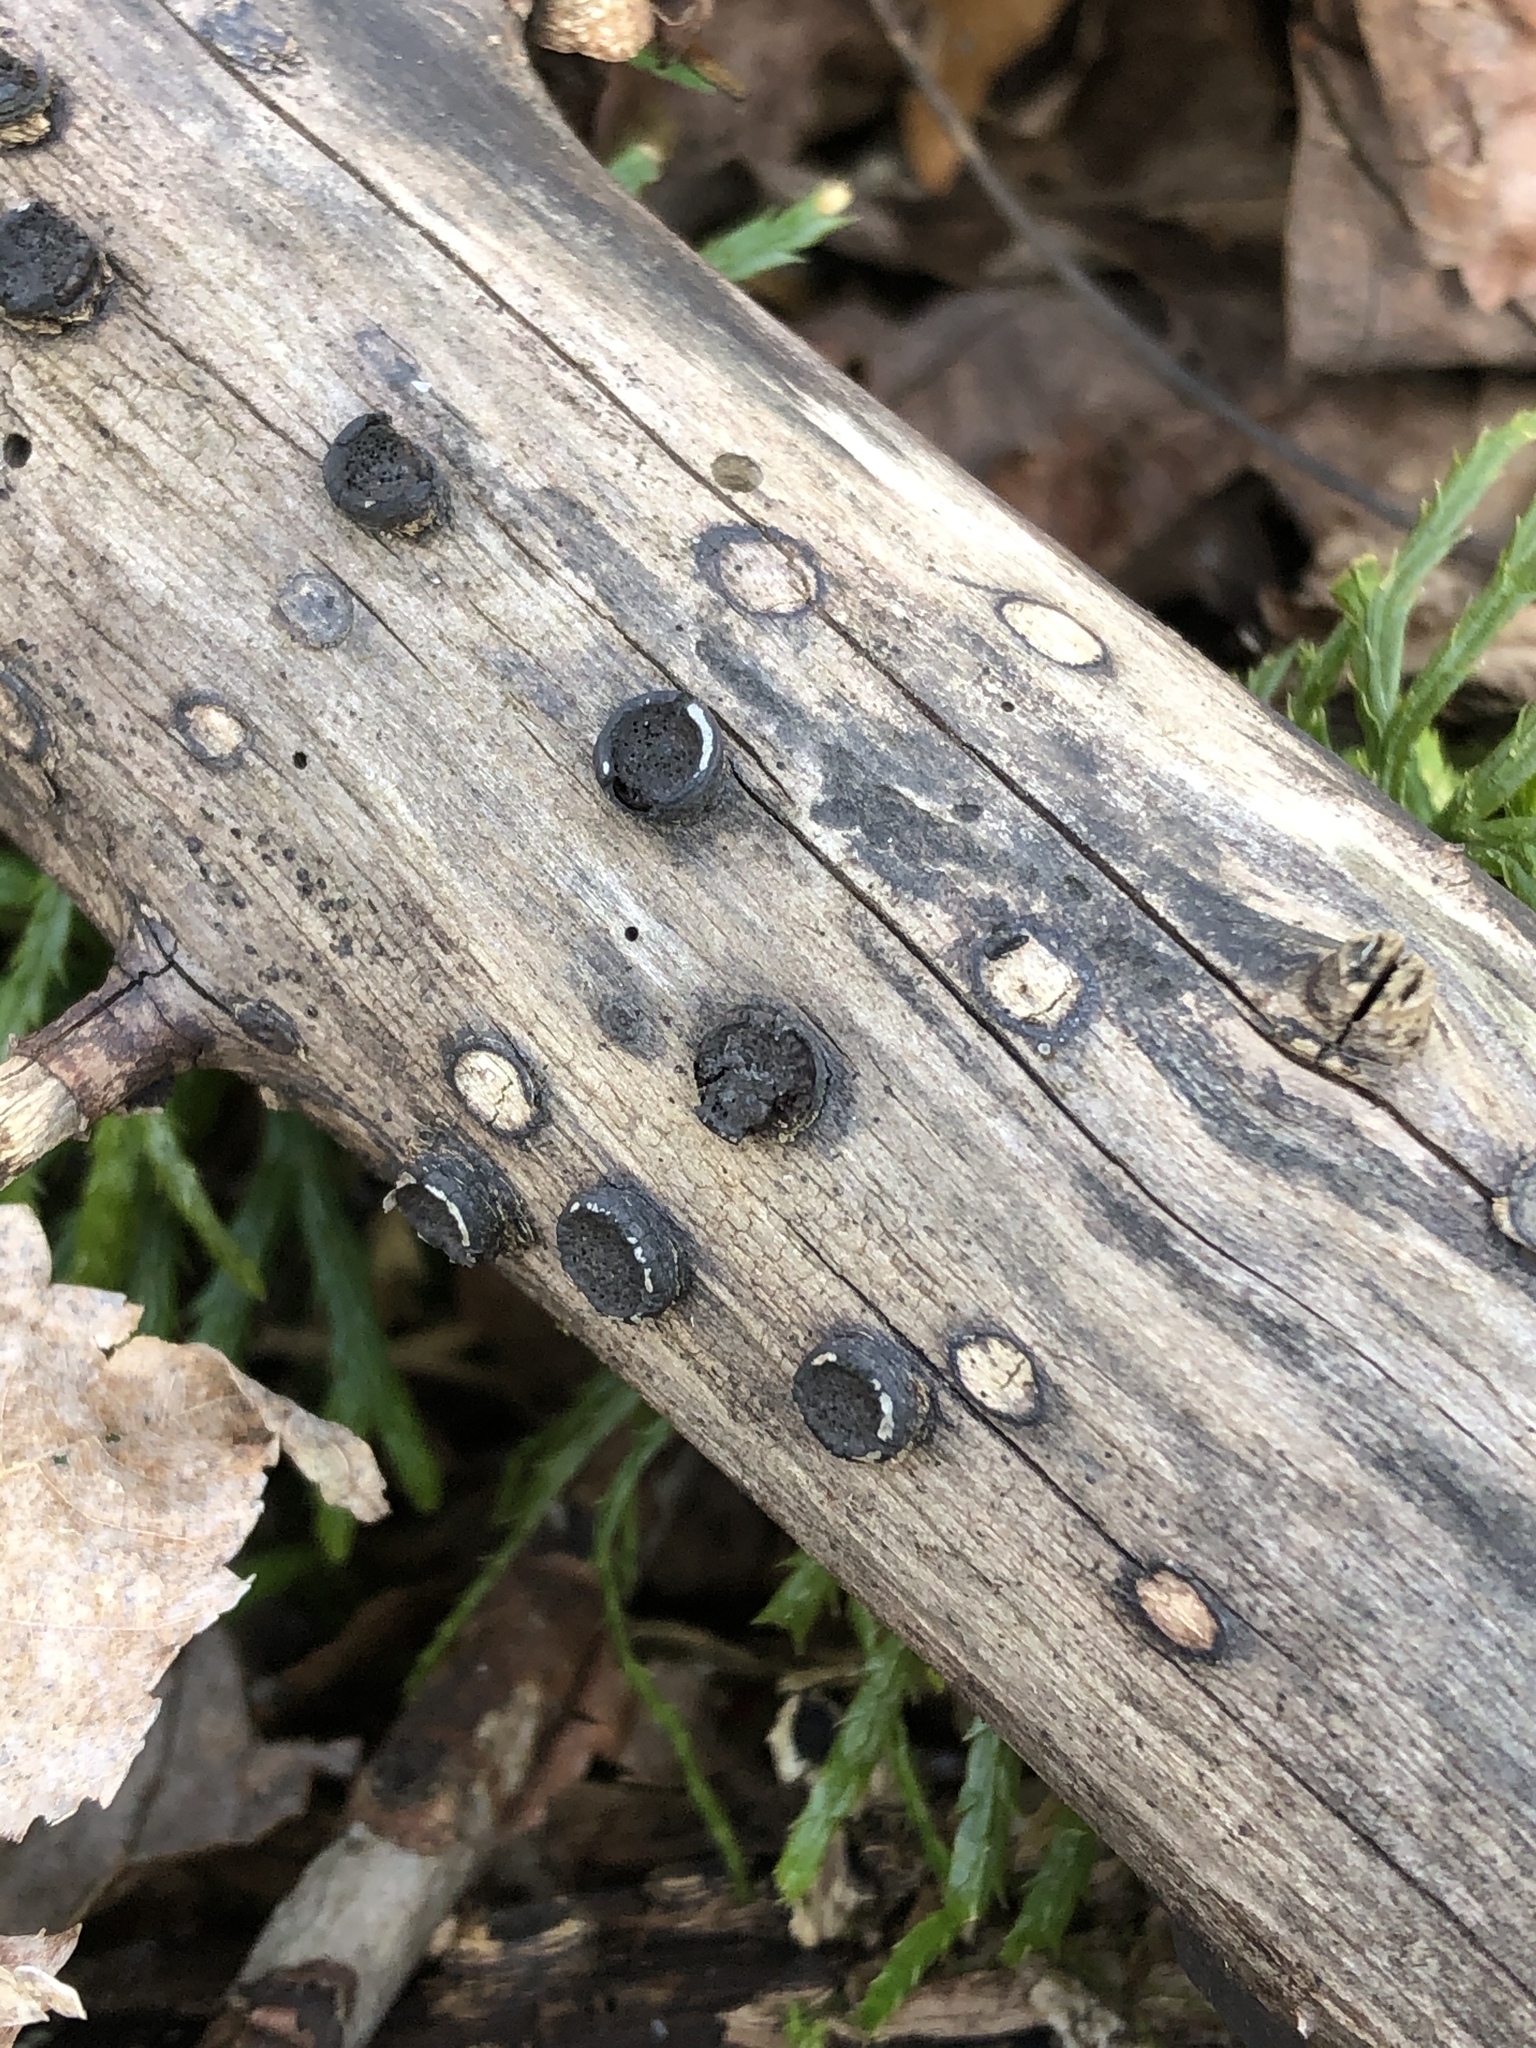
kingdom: Fungi
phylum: Ascomycota
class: Sordariomycetes
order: Xylariales
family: Graphostromataceae
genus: Biscogniauxia
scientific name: Biscogniauxia marginata
